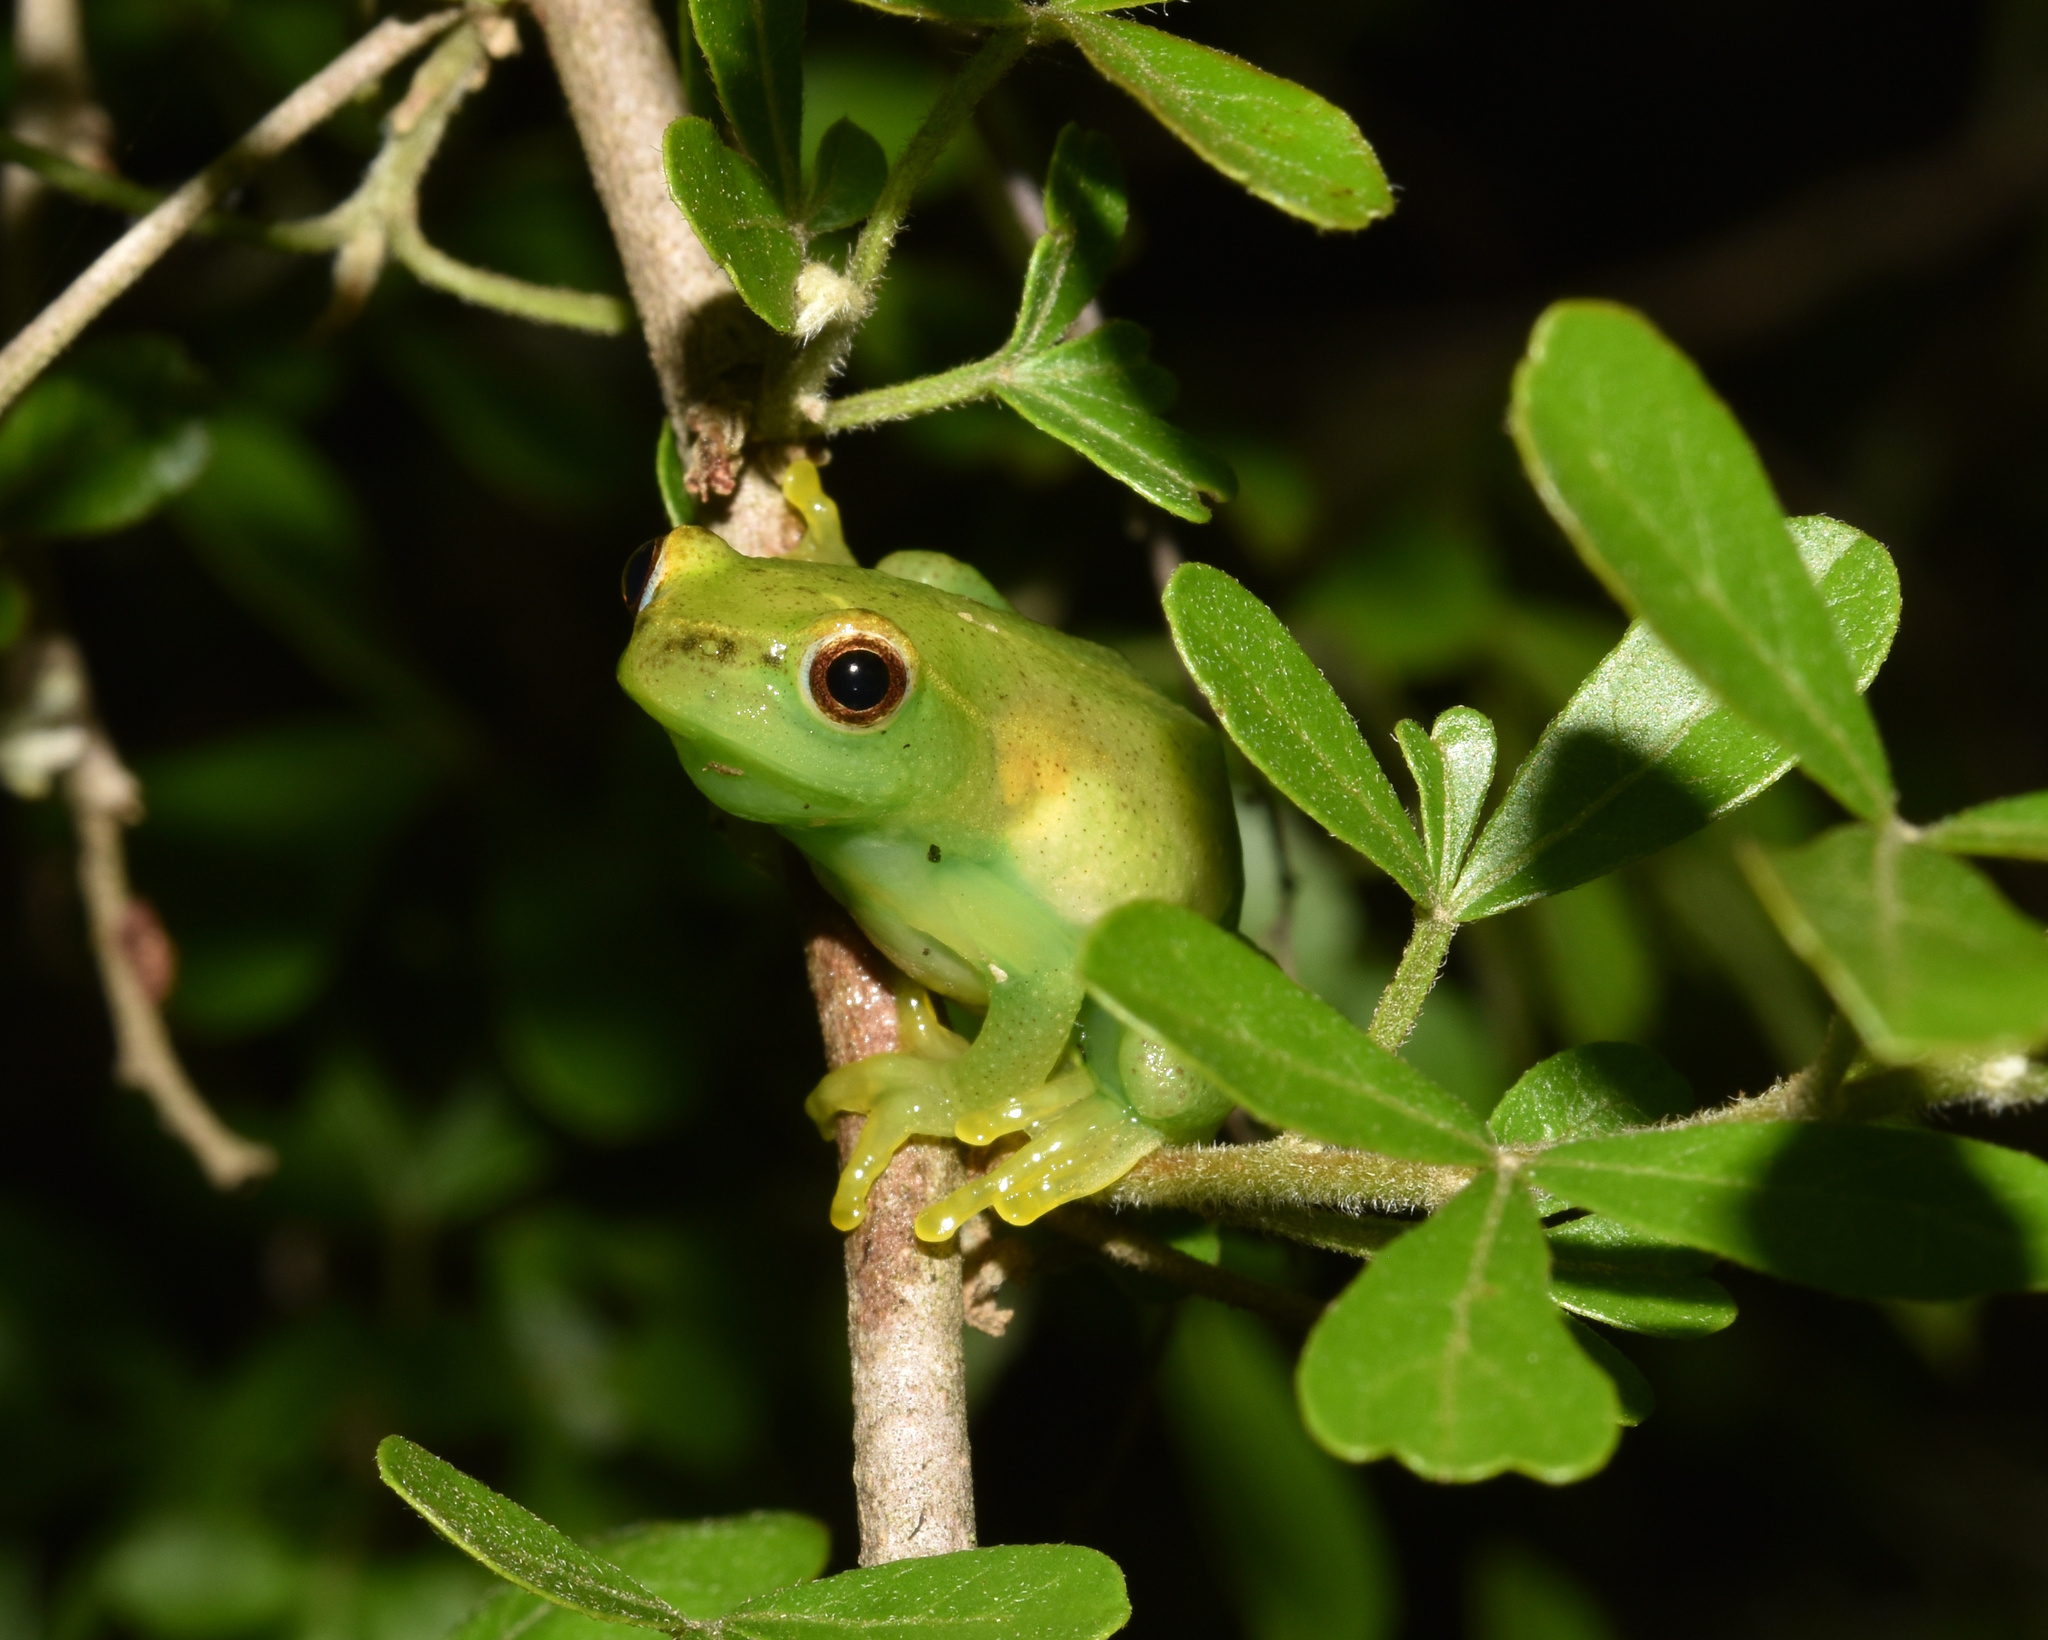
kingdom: Animalia
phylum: Chordata
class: Amphibia
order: Anura
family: Hyperoliidae
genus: Hyperolius
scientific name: Hyperolius pusillus
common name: Water lily reed frog
